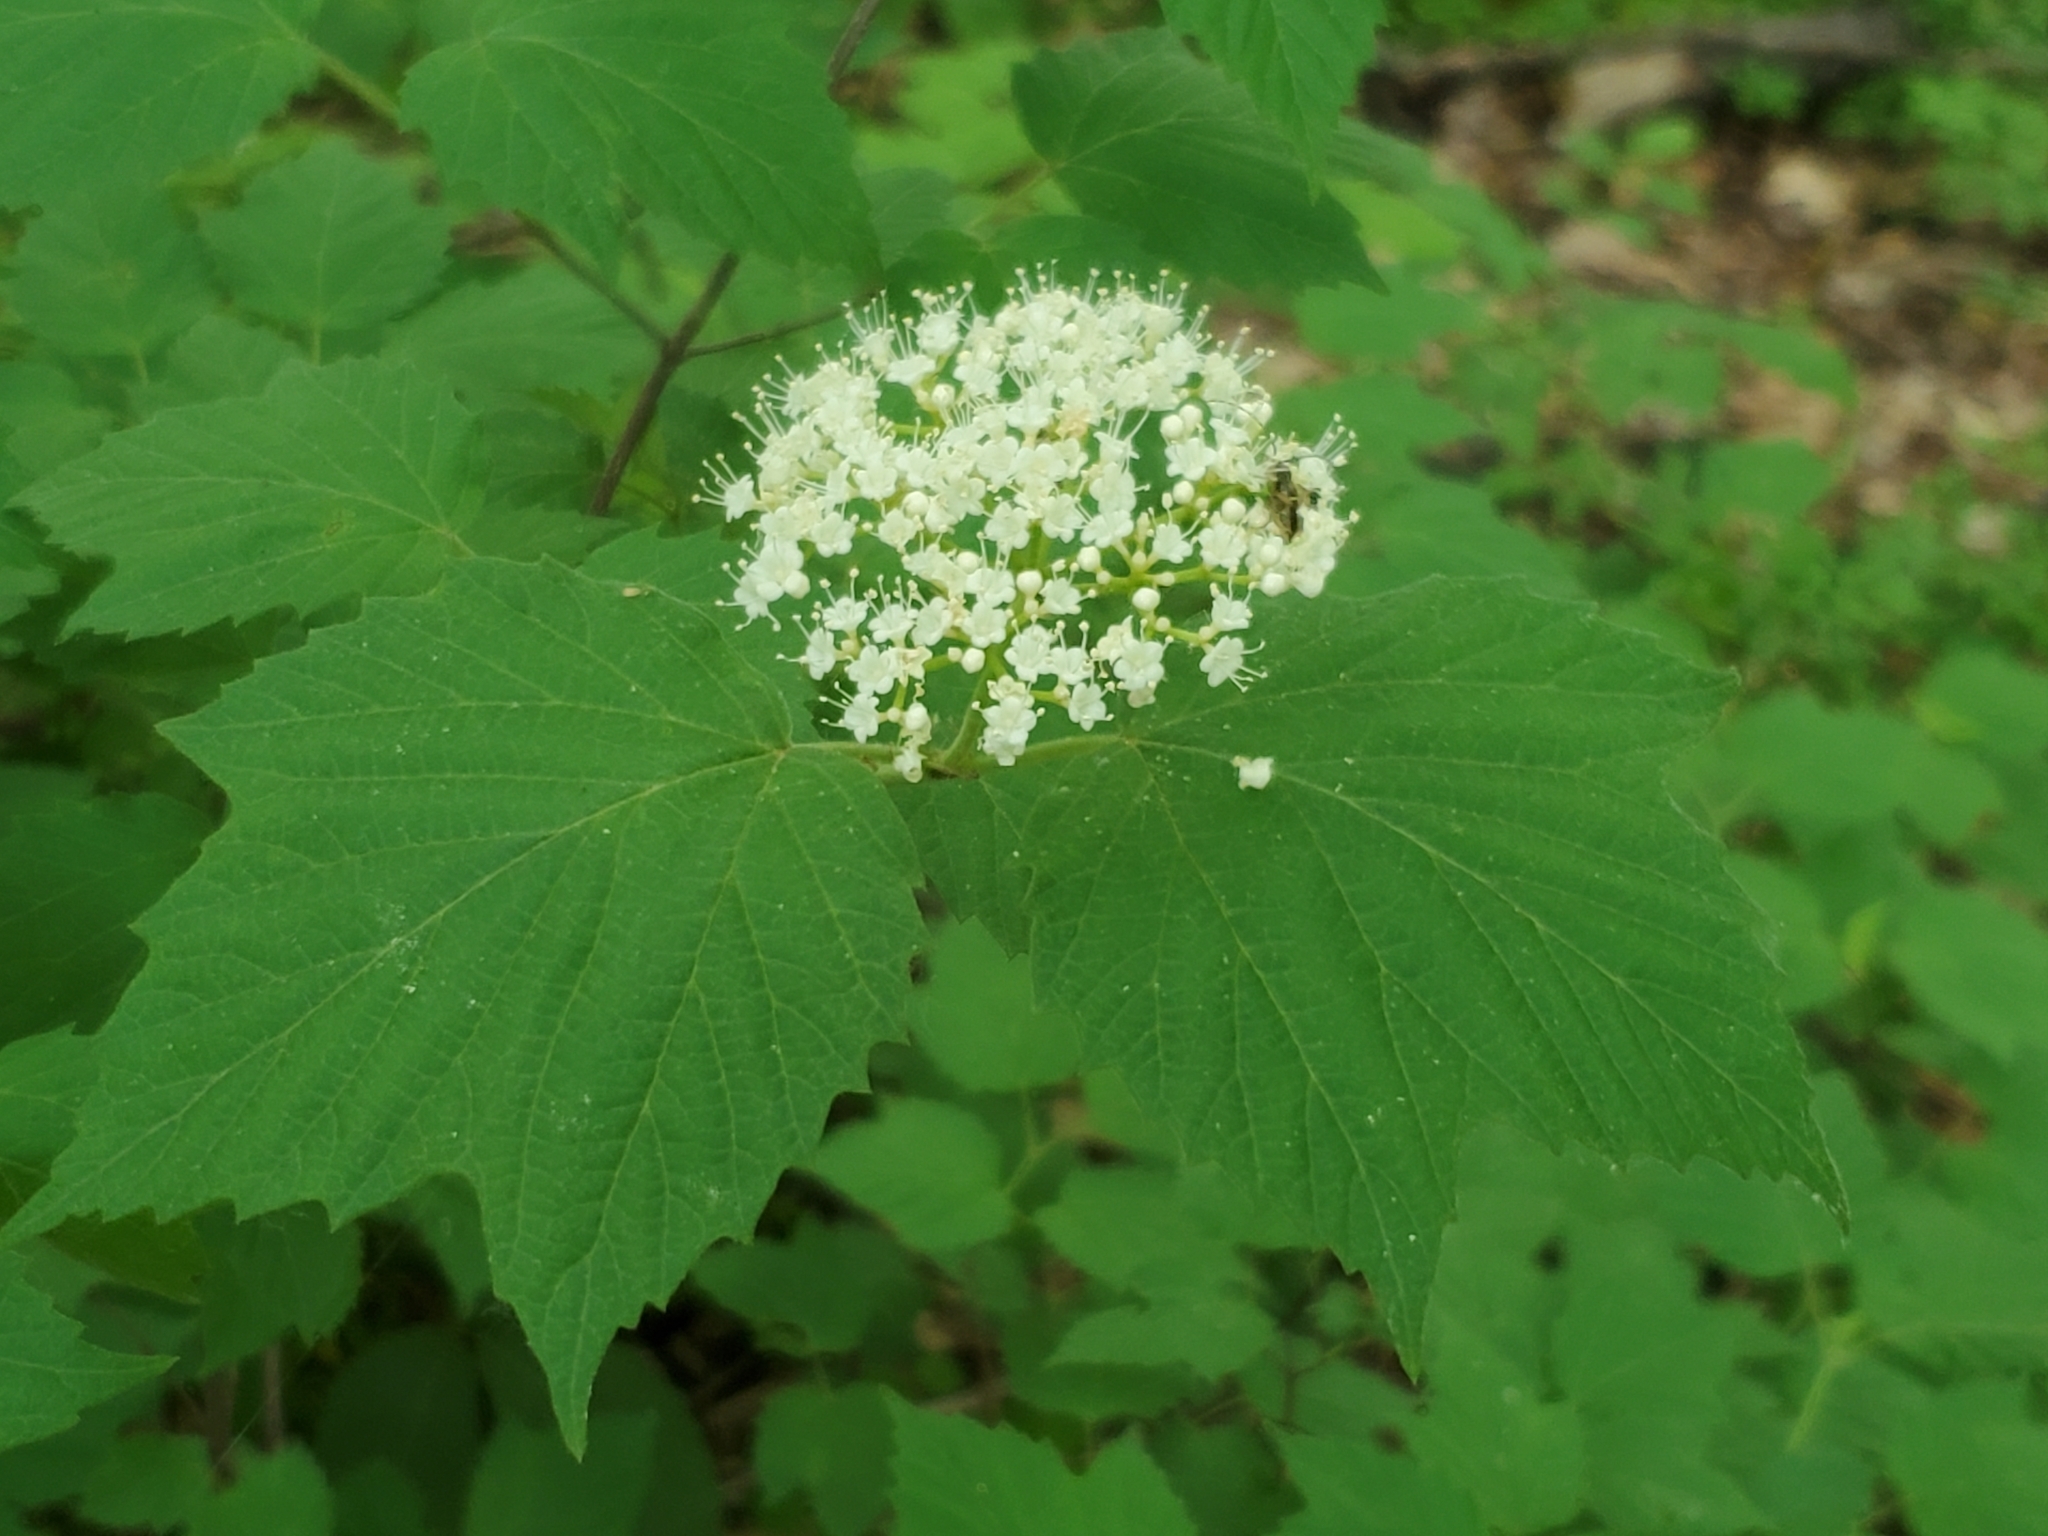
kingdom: Plantae
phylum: Tracheophyta
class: Magnoliopsida
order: Dipsacales
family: Viburnaceae
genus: Viburnum
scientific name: Viburnum acerifolium
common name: Dockmackie
